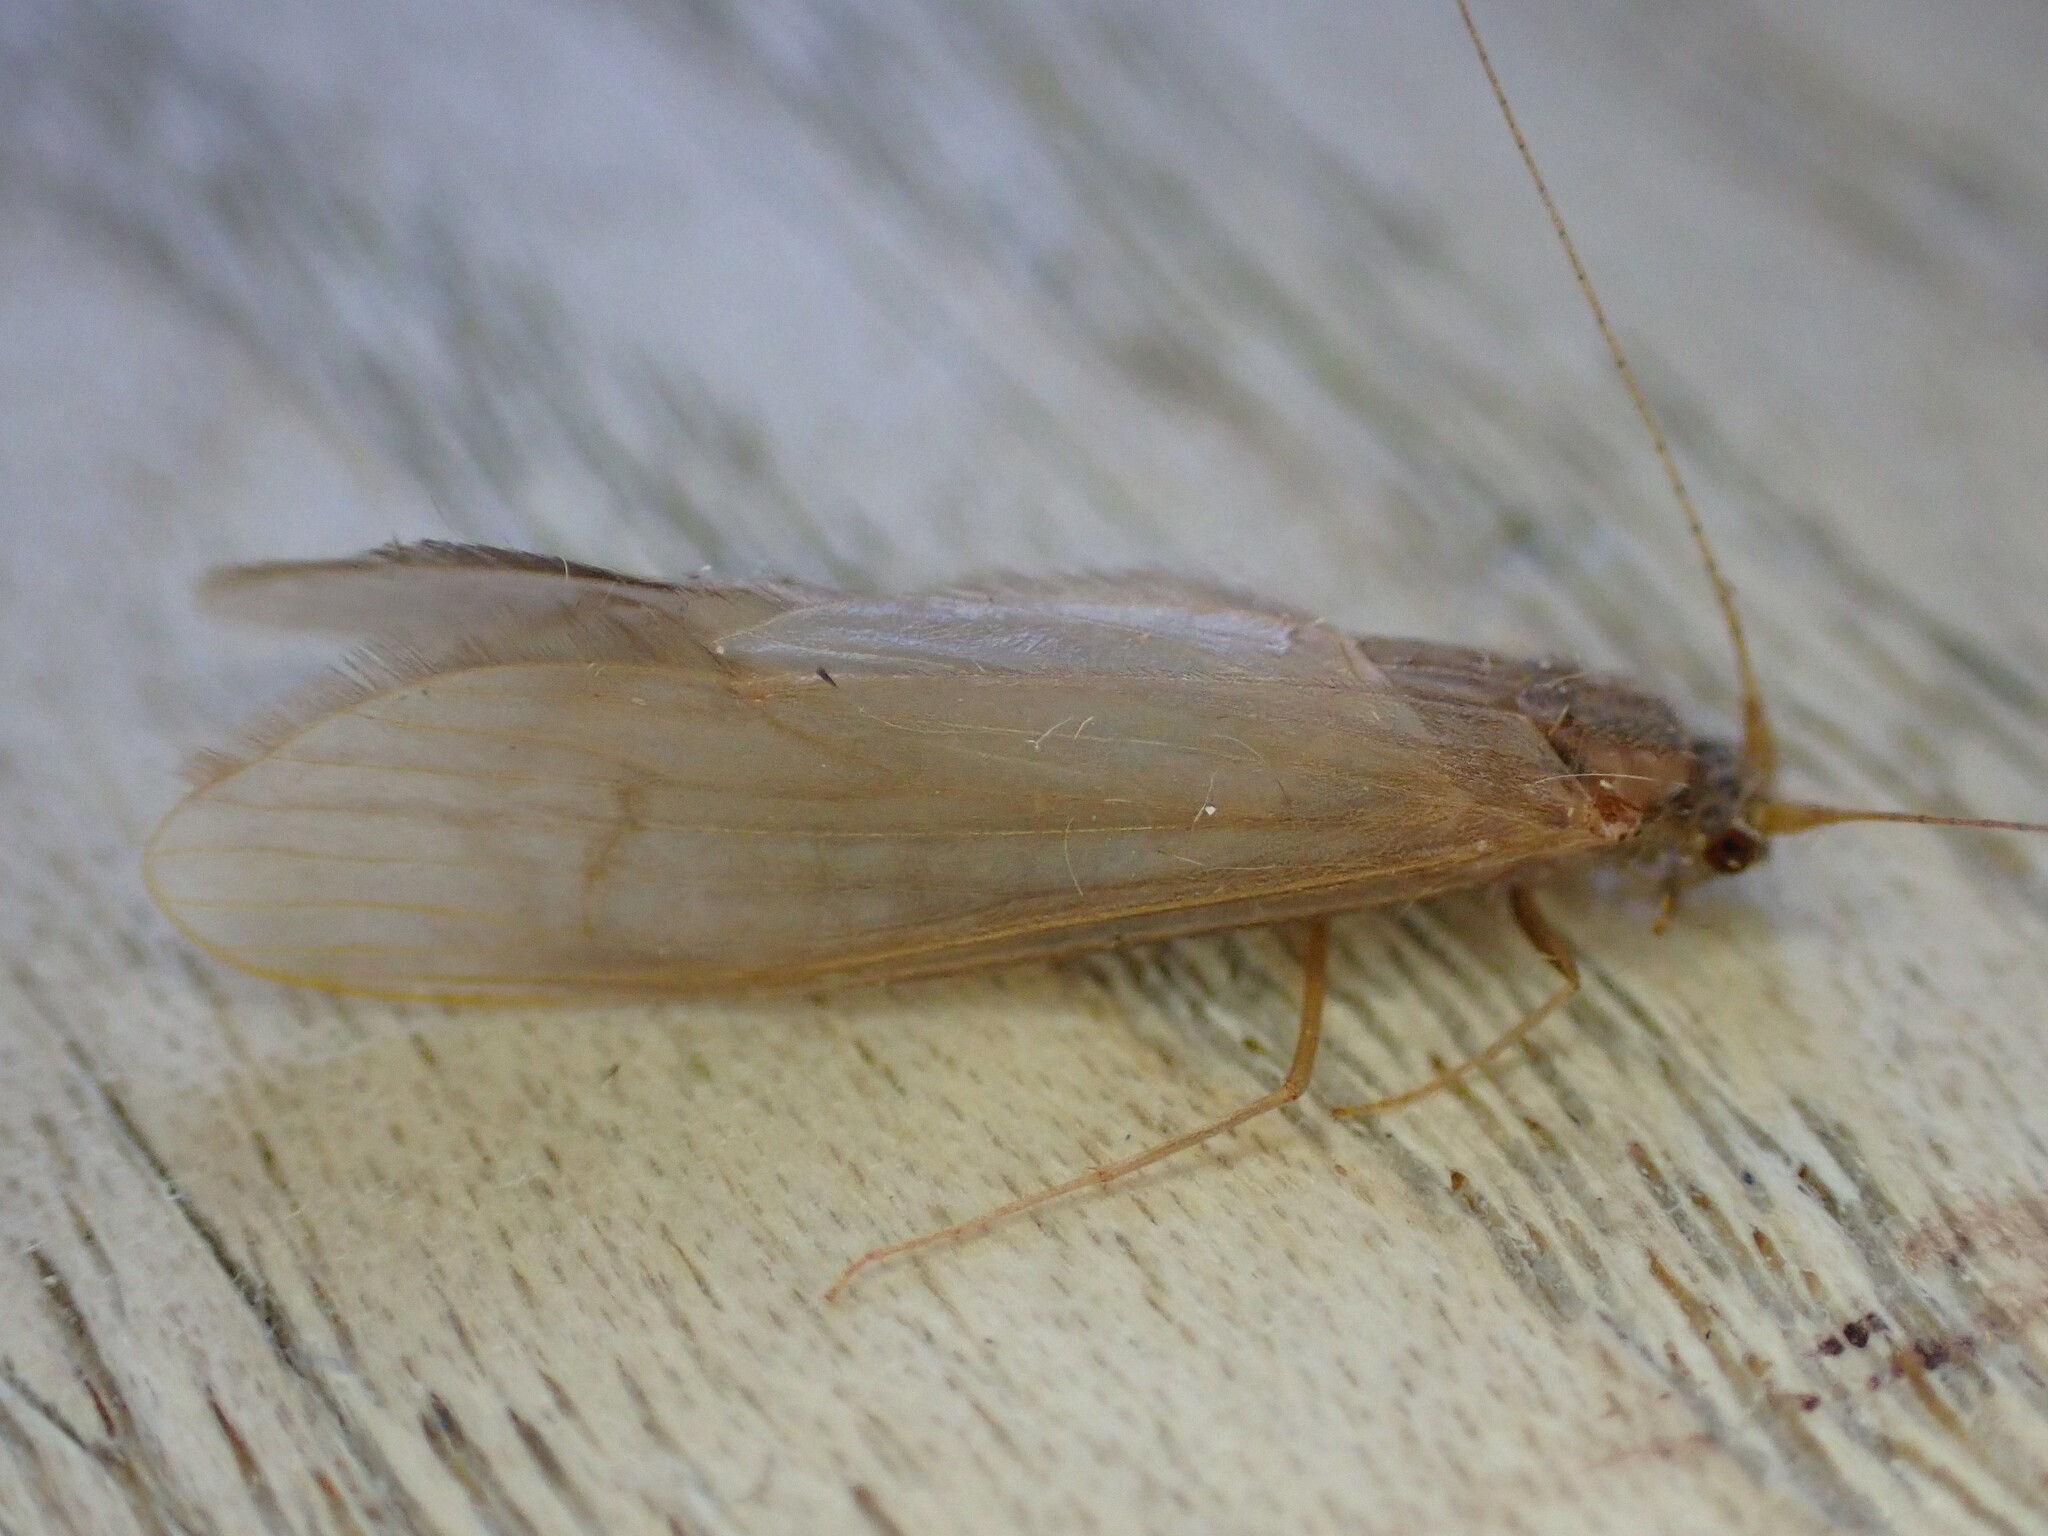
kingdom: Animalia
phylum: Arthropoda
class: Insecta
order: Trichoptera
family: Leptoceridae
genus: Oecetis
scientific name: Oecetis ochracea
